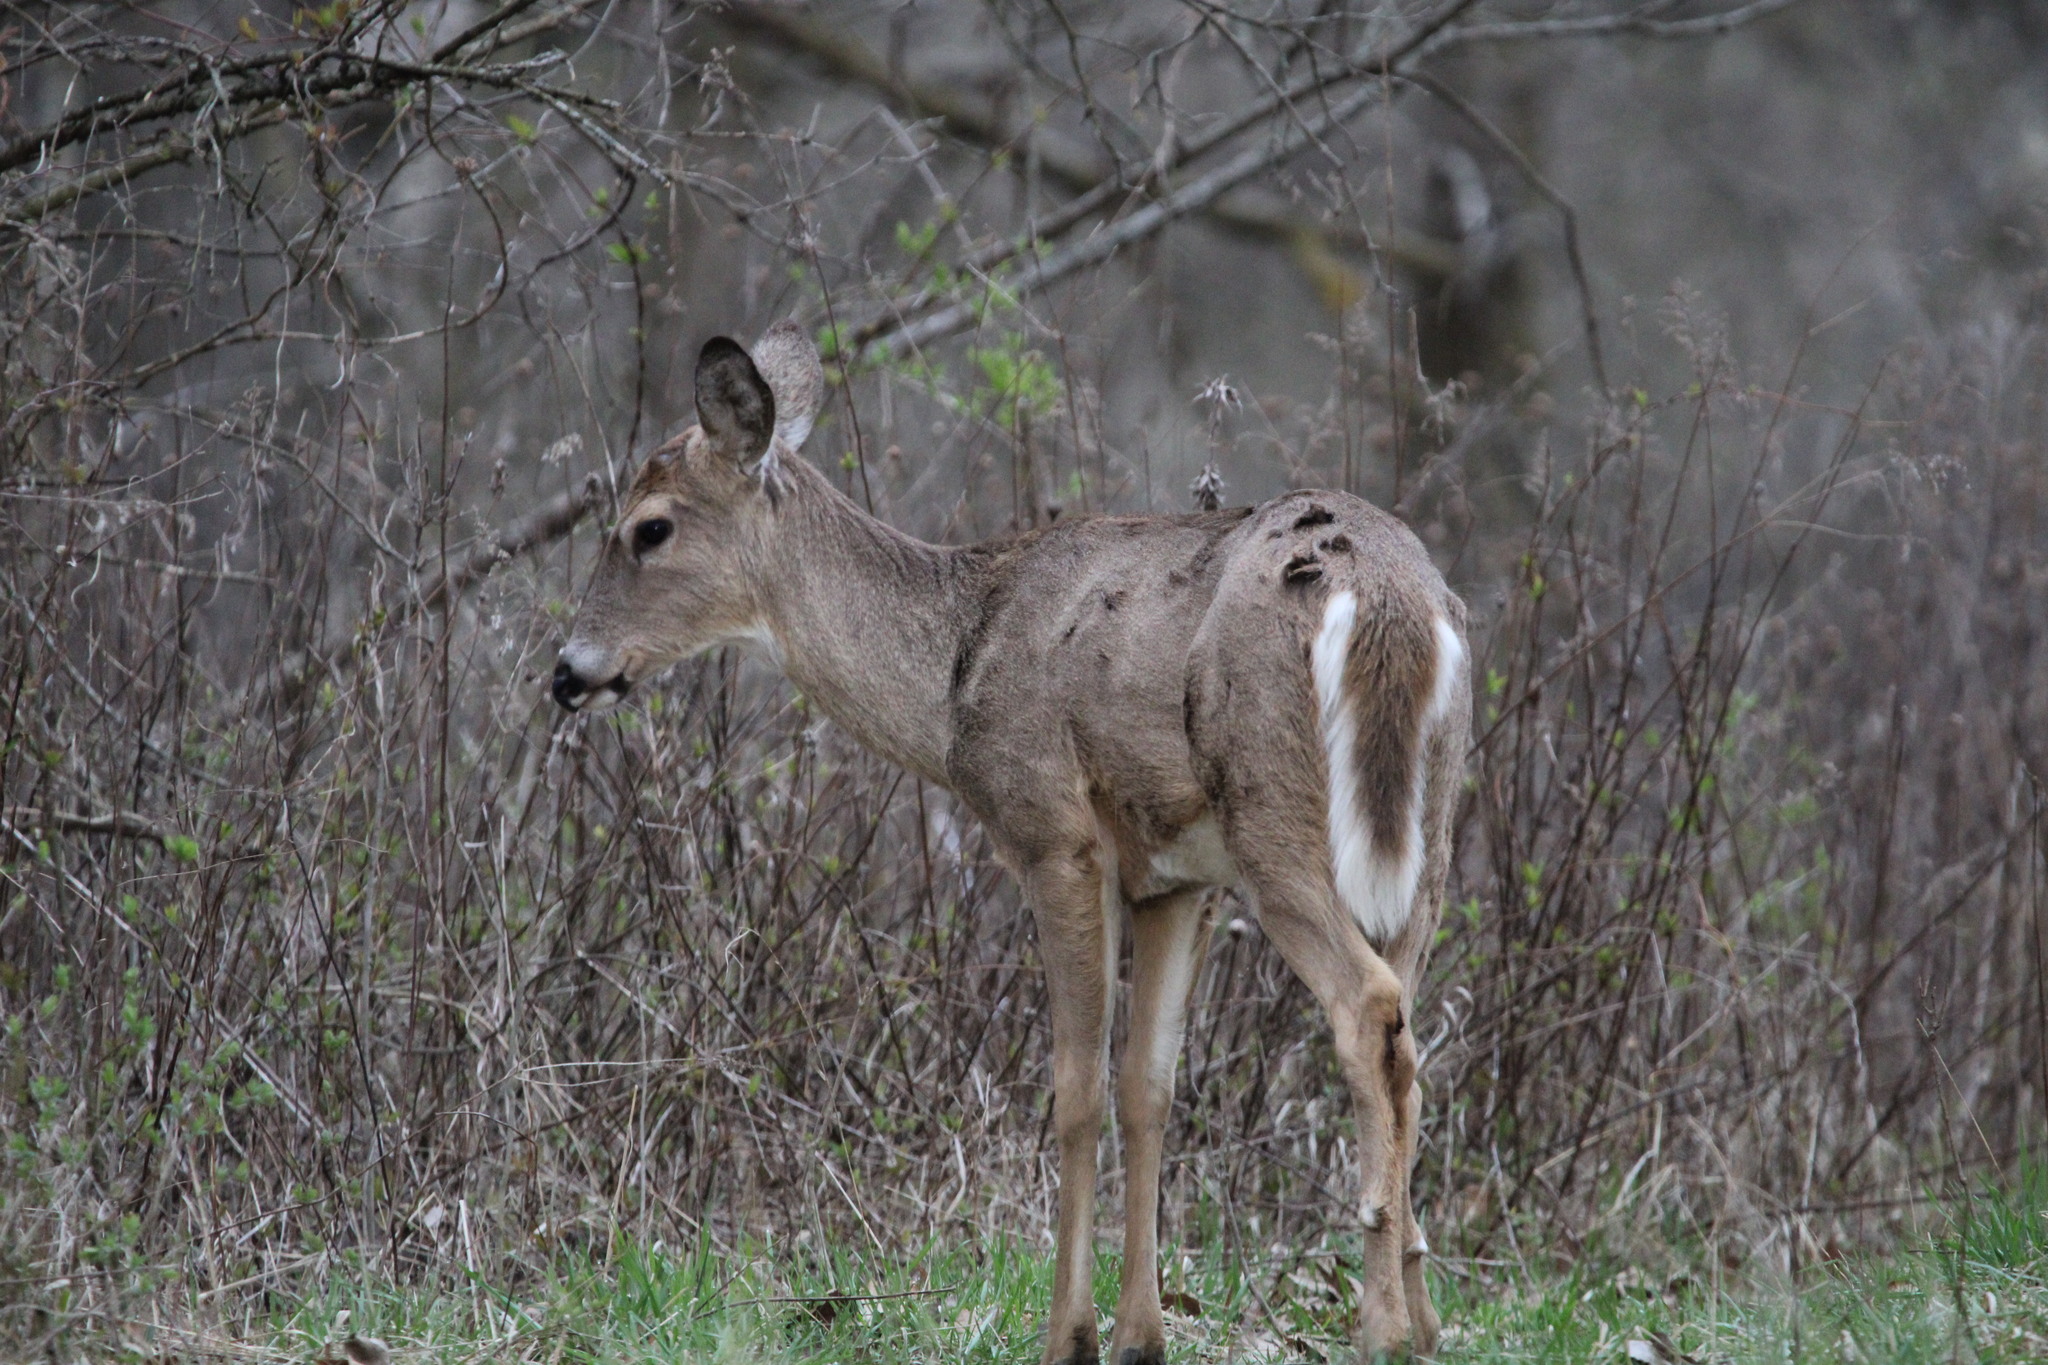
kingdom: Animalia
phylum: Chordata
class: Mammalia
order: Artiodactyla
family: Cervidae
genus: Odocoileus
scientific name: Odocoileus virginianus
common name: White-tailed deer
